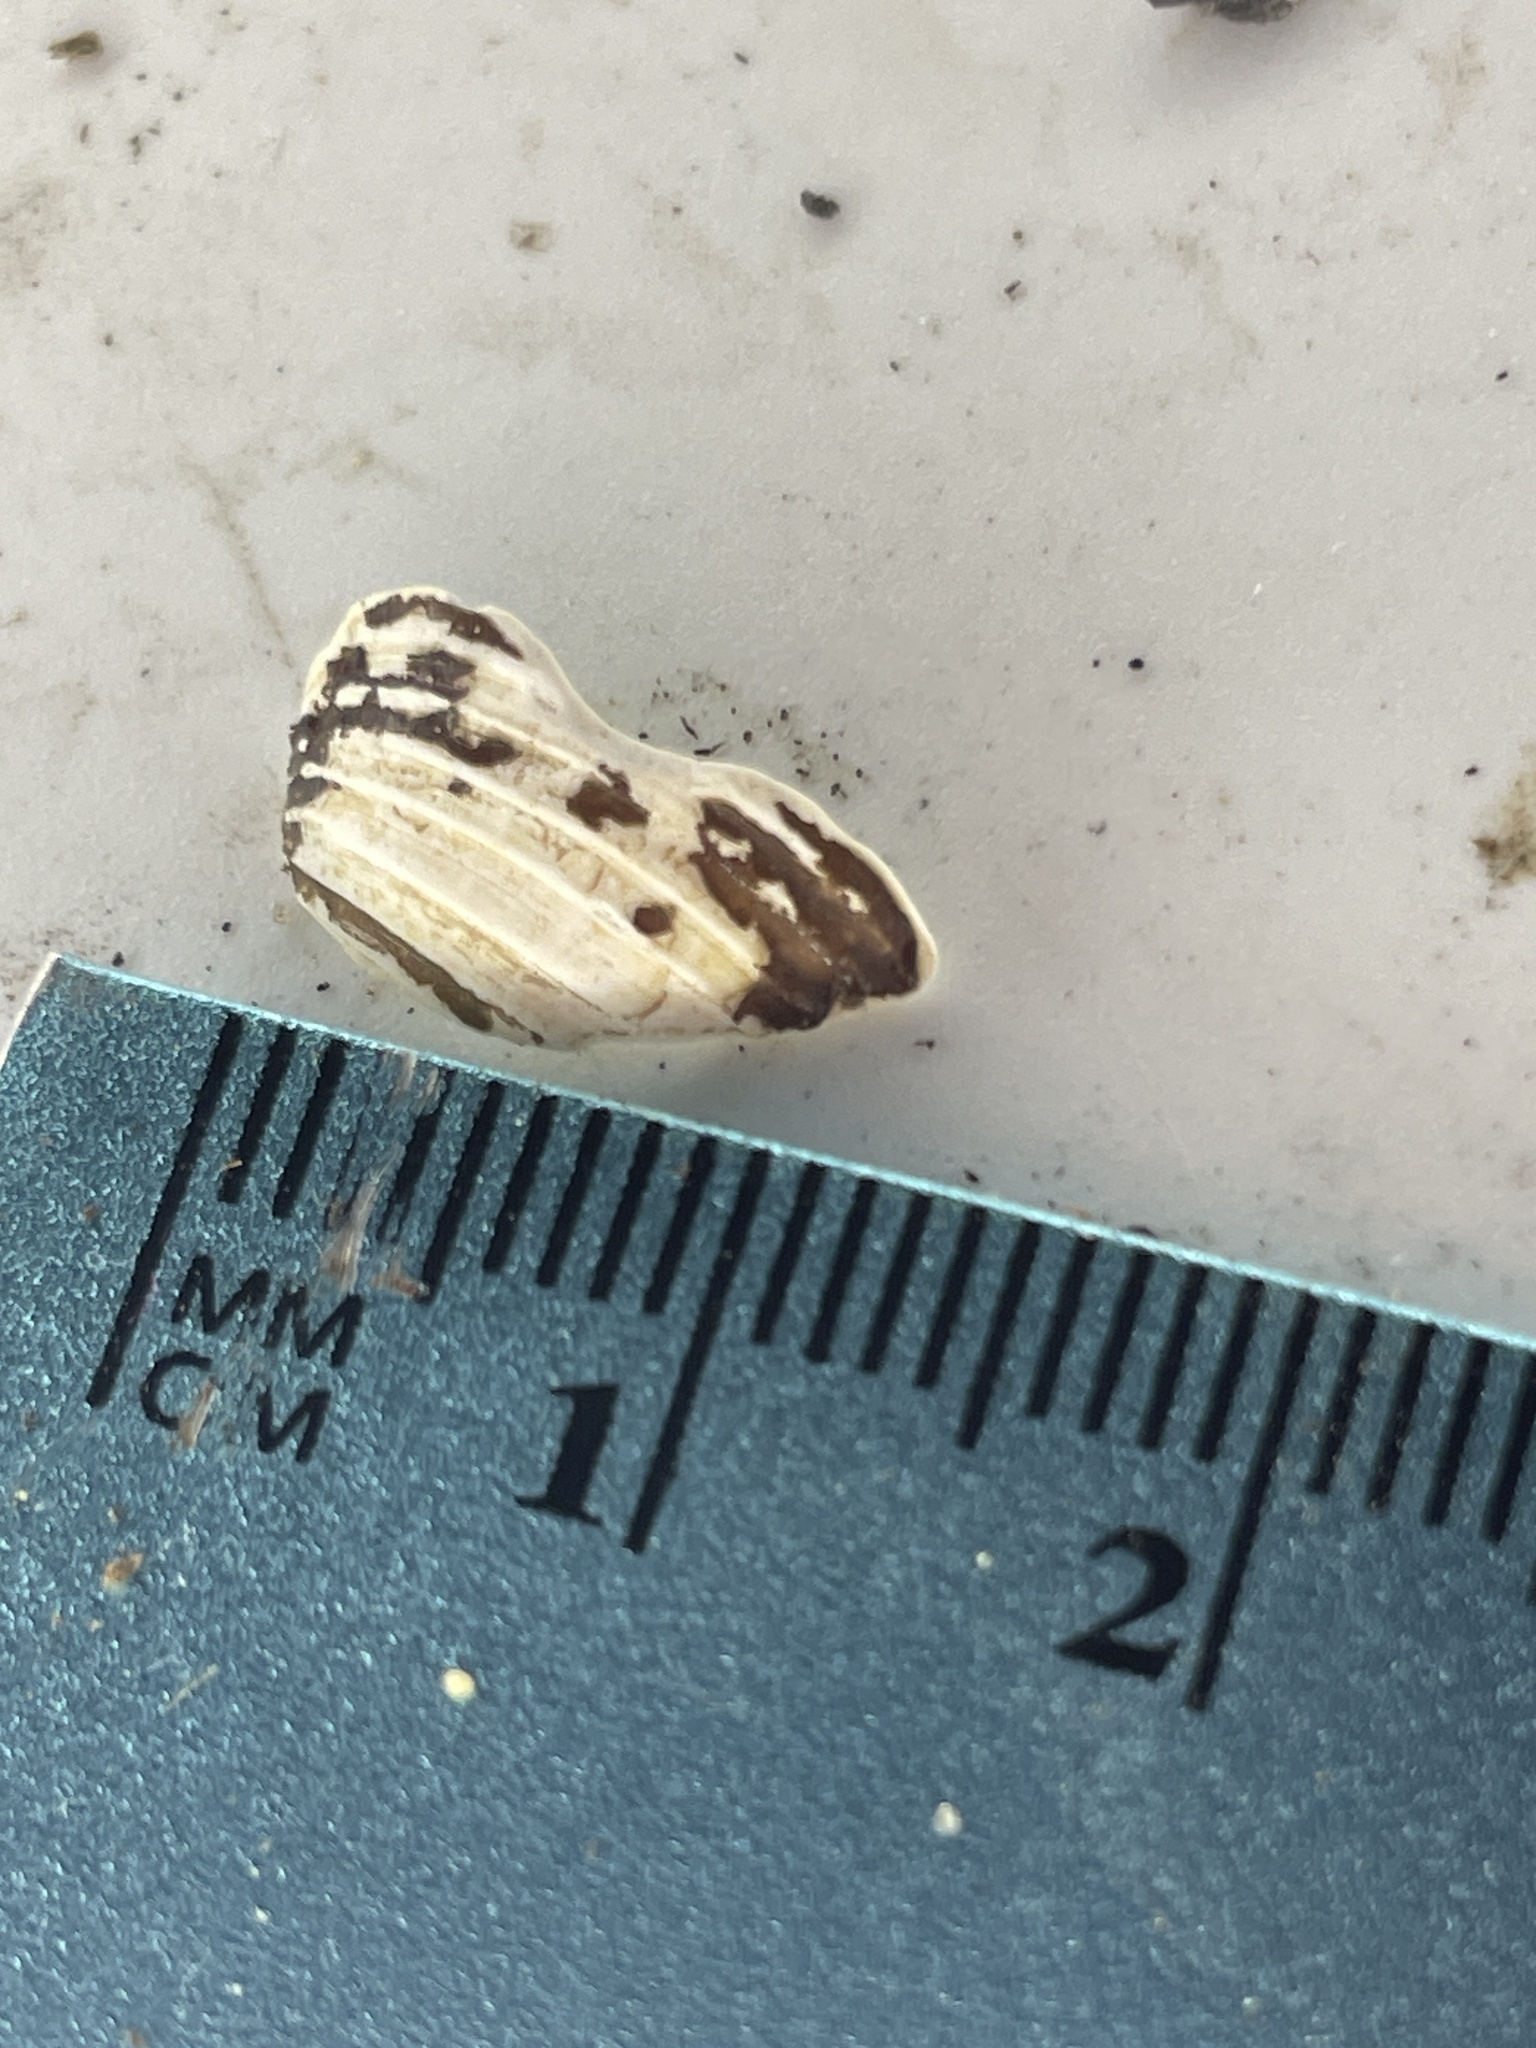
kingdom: Animalia
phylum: Mollusca
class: Bivalvia
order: Venerida
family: Cyrenidae
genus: Corbicula
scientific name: Corbicula fluminea
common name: Asian clam
